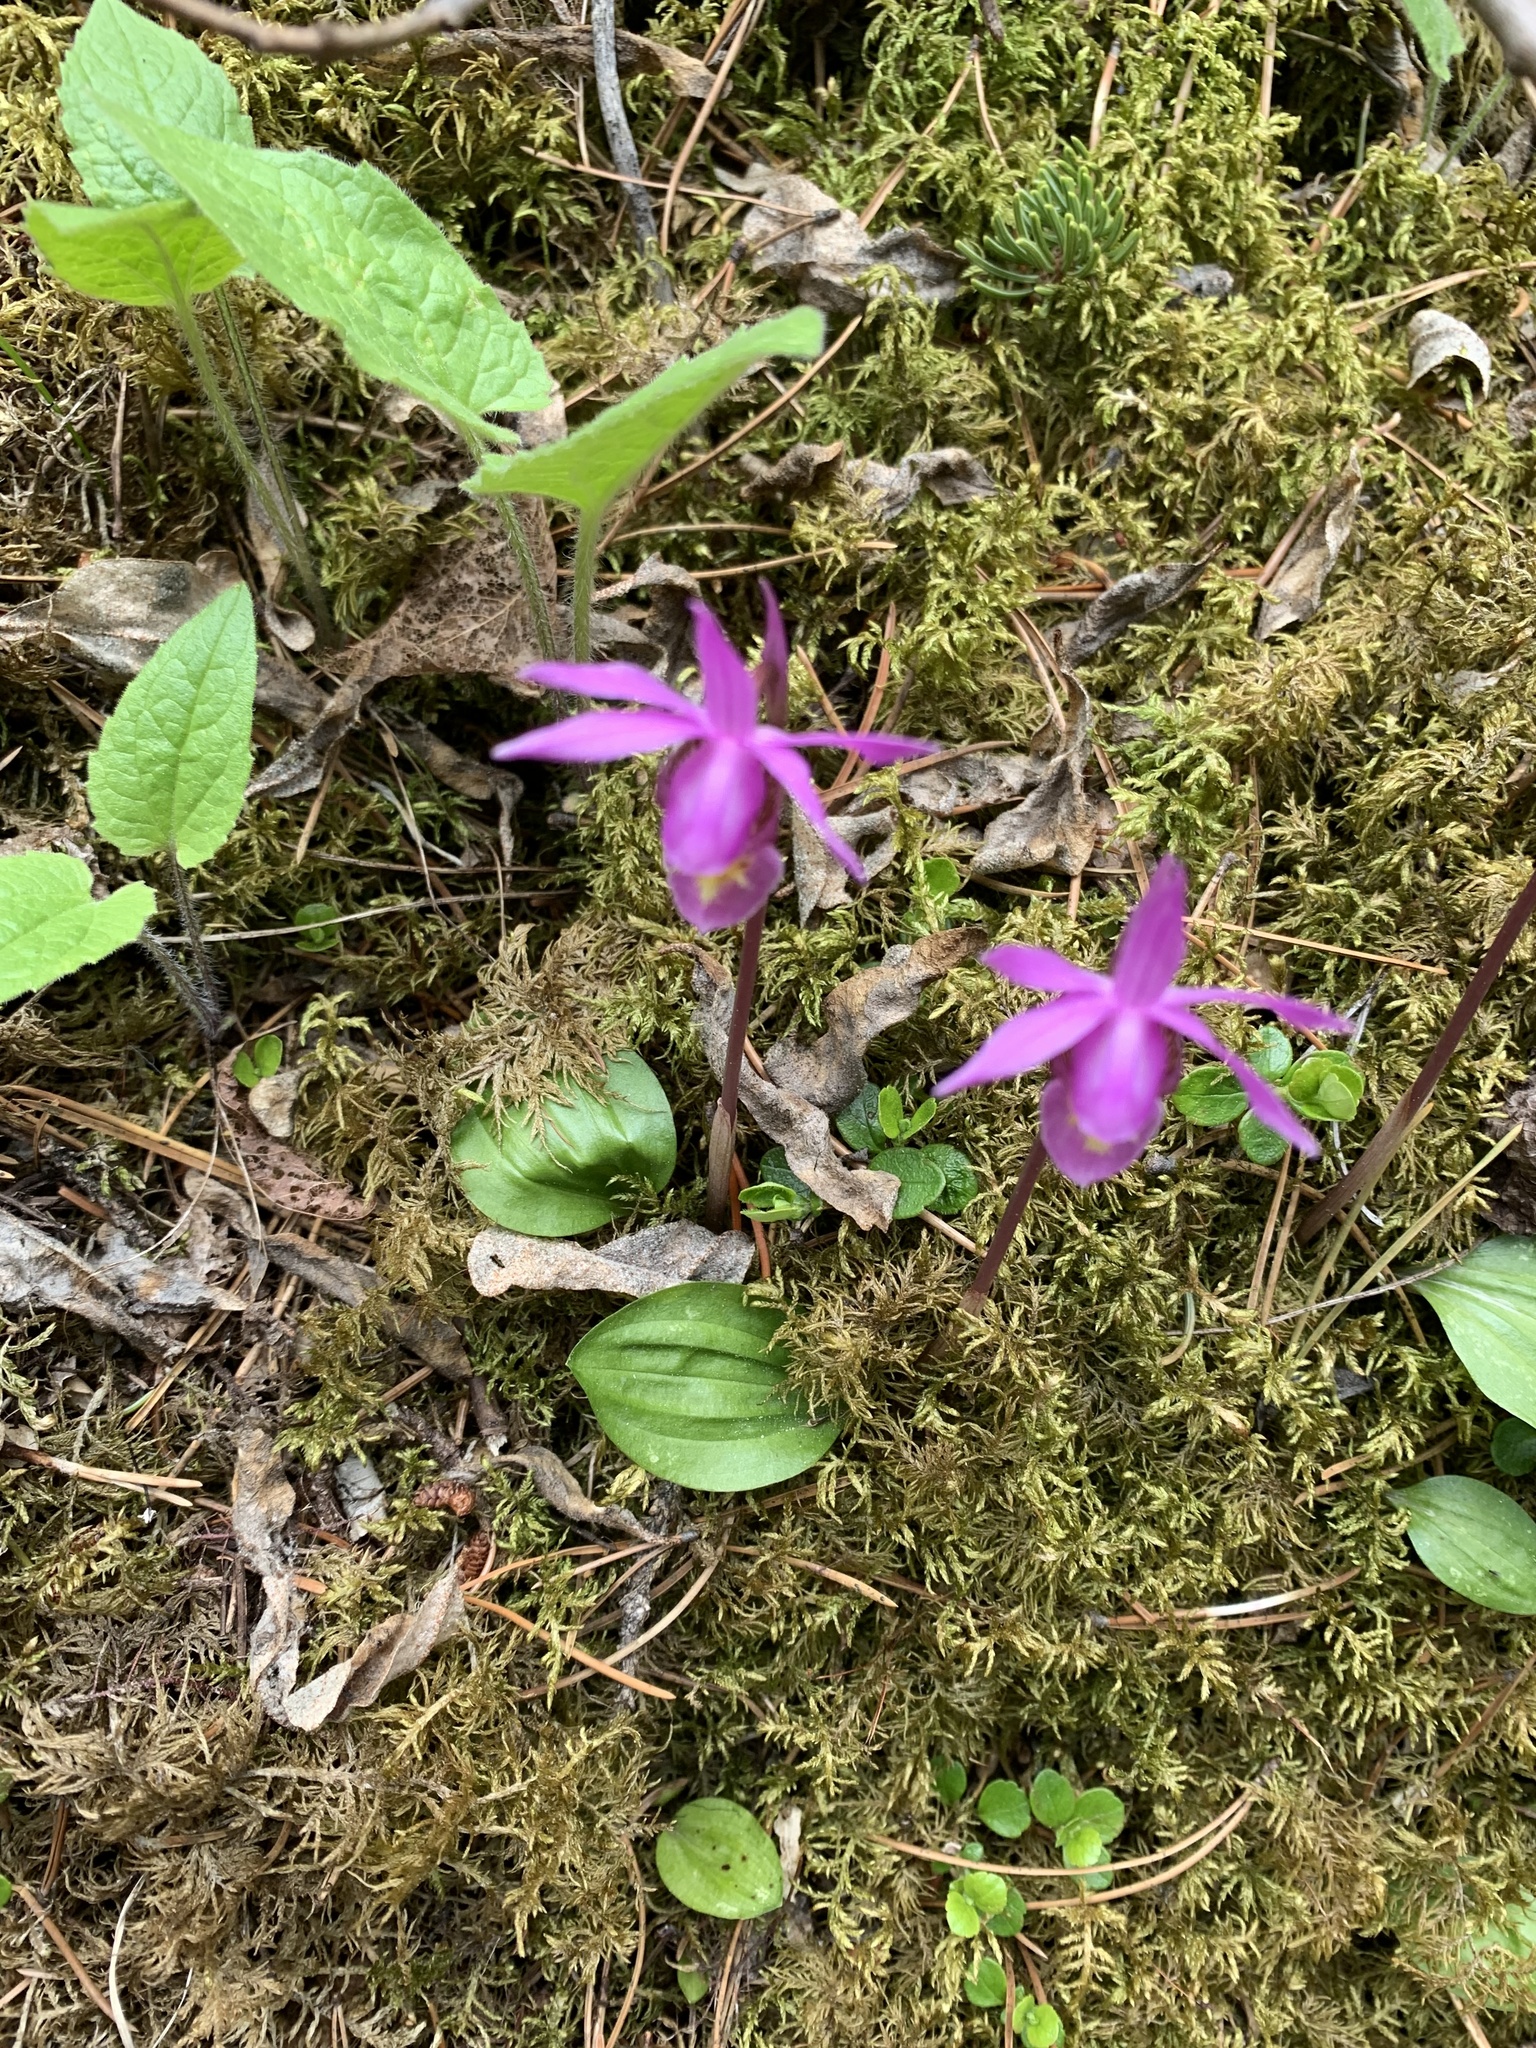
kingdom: Plantae
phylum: Tracheophyta
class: Liliopsida
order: Asparagales
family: Orchidaceae
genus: Calypso
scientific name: Calypso bulbosa
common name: Calypso
